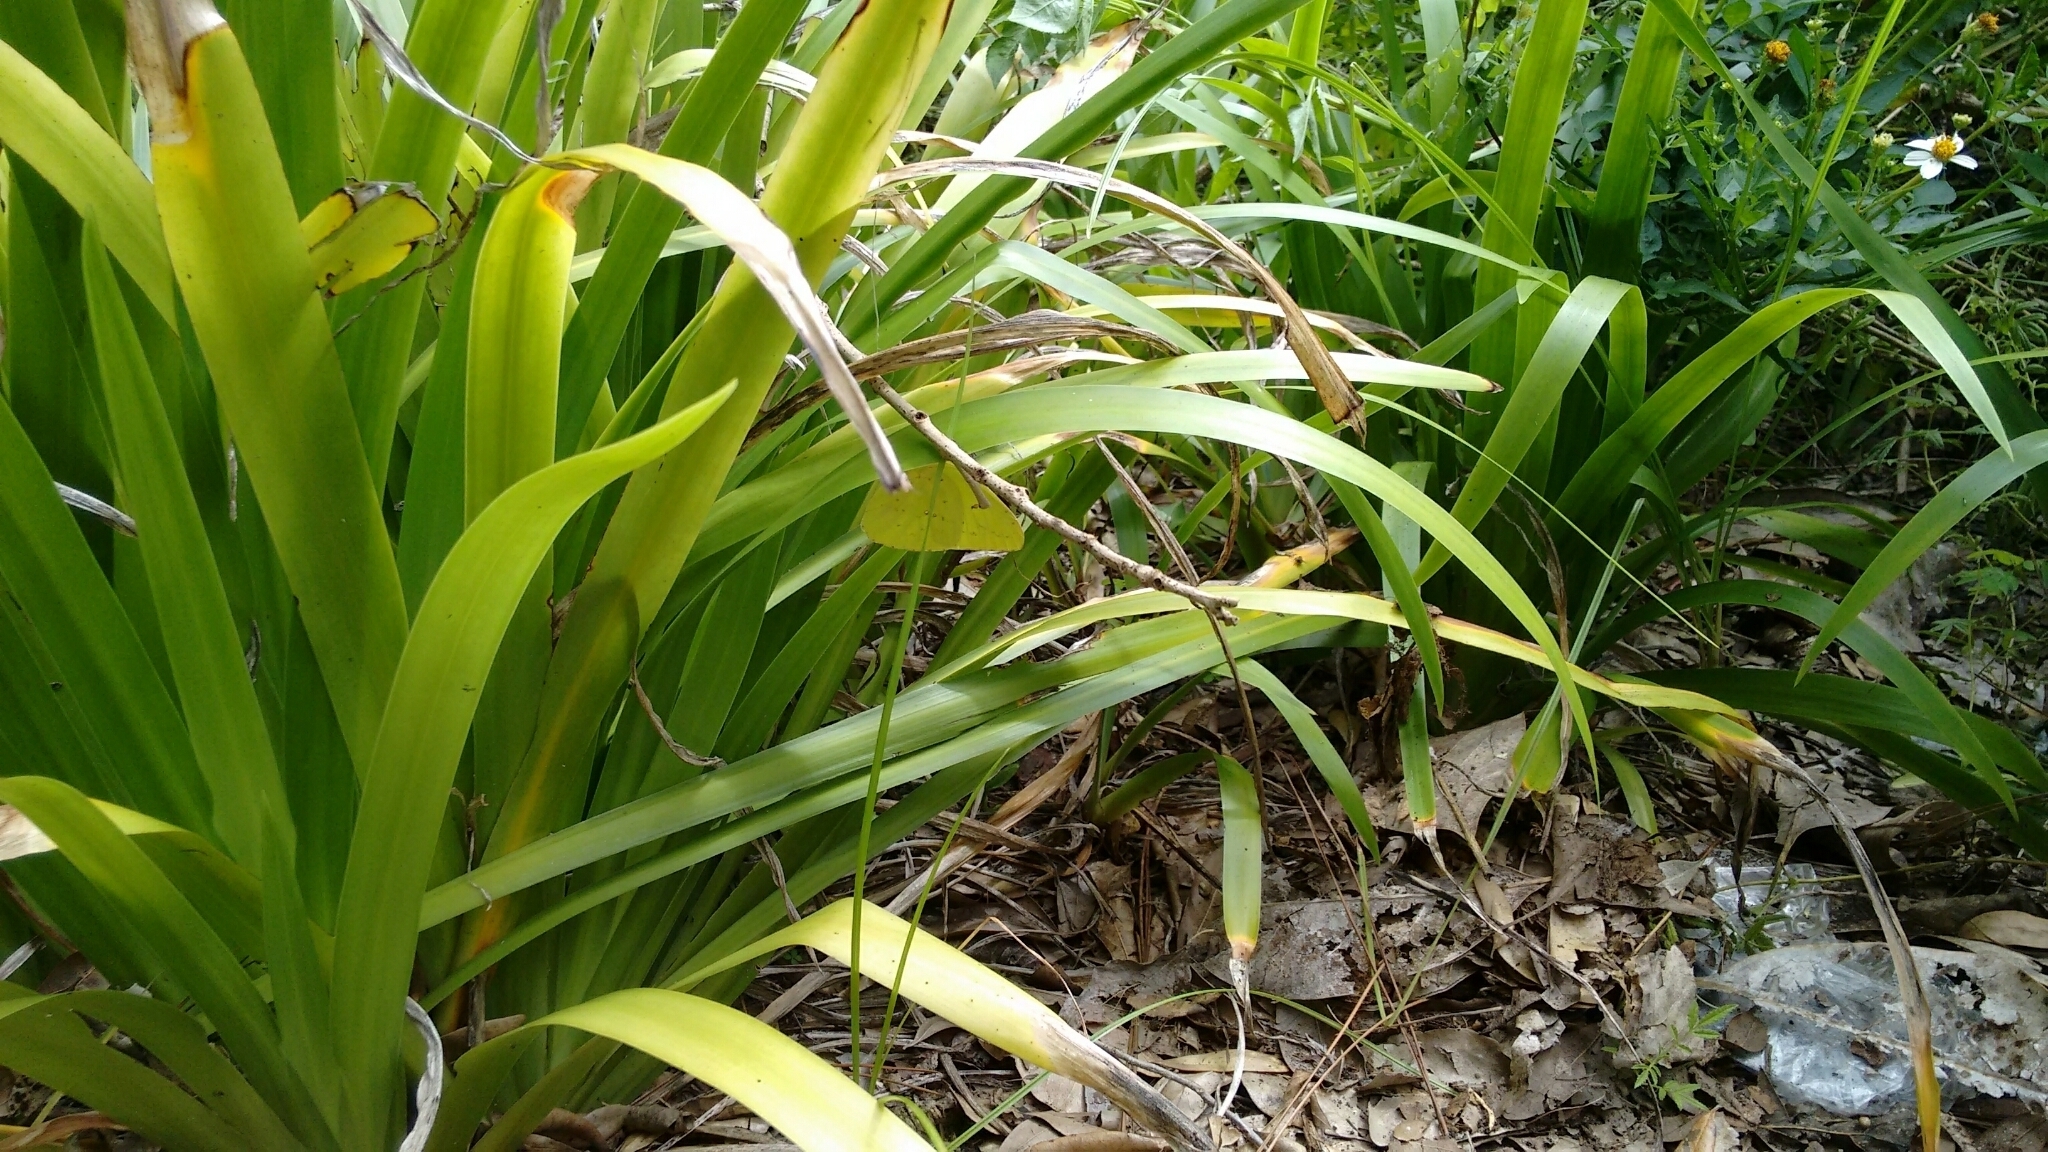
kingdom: Animalia
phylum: Arthropoda
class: Insecta
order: Lepidoptera
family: Pieridae
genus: Phoebis
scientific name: Phoebis sennae
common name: Cloudless sulphur
